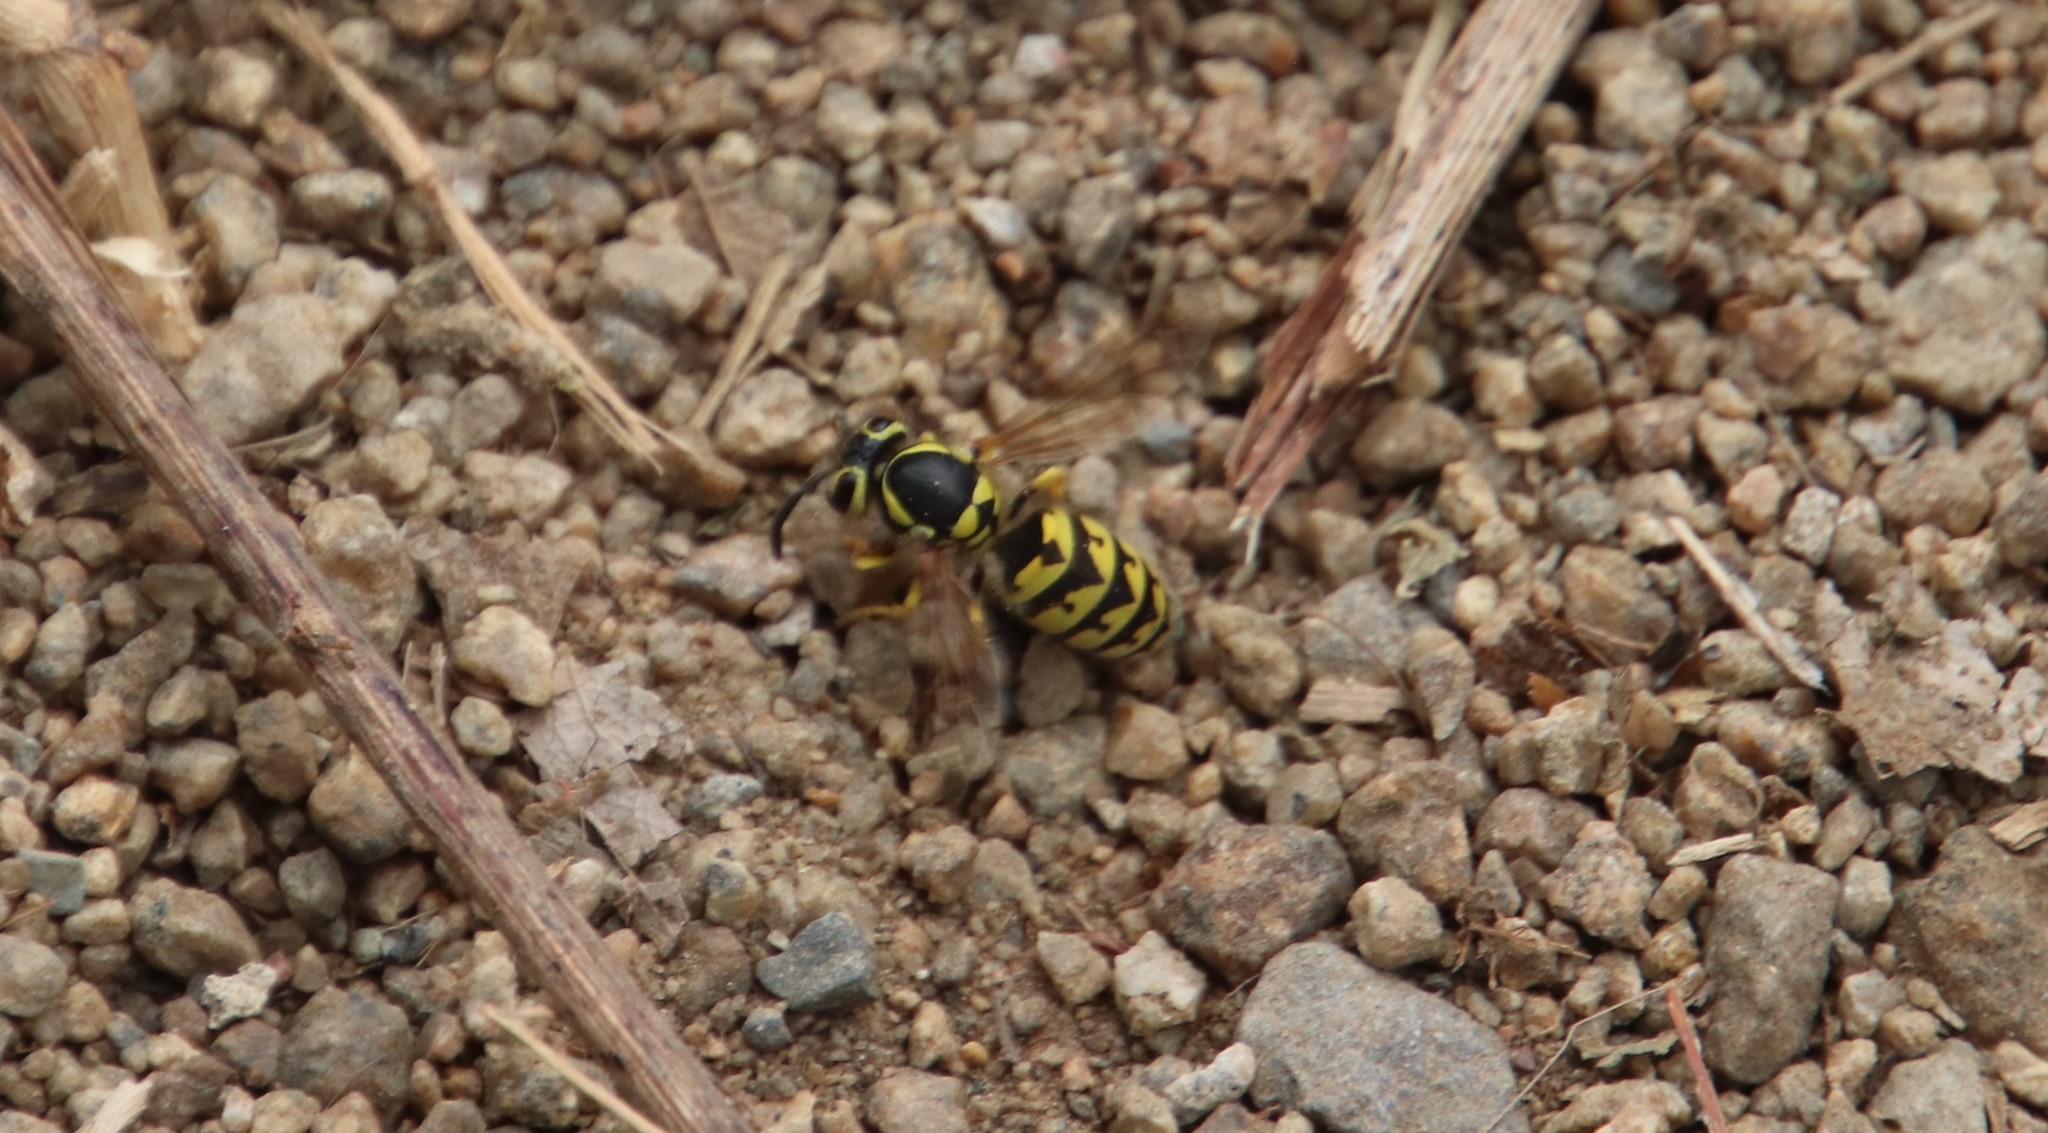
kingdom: Animalia
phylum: Arthropoda
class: Insecta
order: Hymenoptera
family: Vespidae
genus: Vespula
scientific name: Vespula pensylvanica
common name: Western yellowjacket
